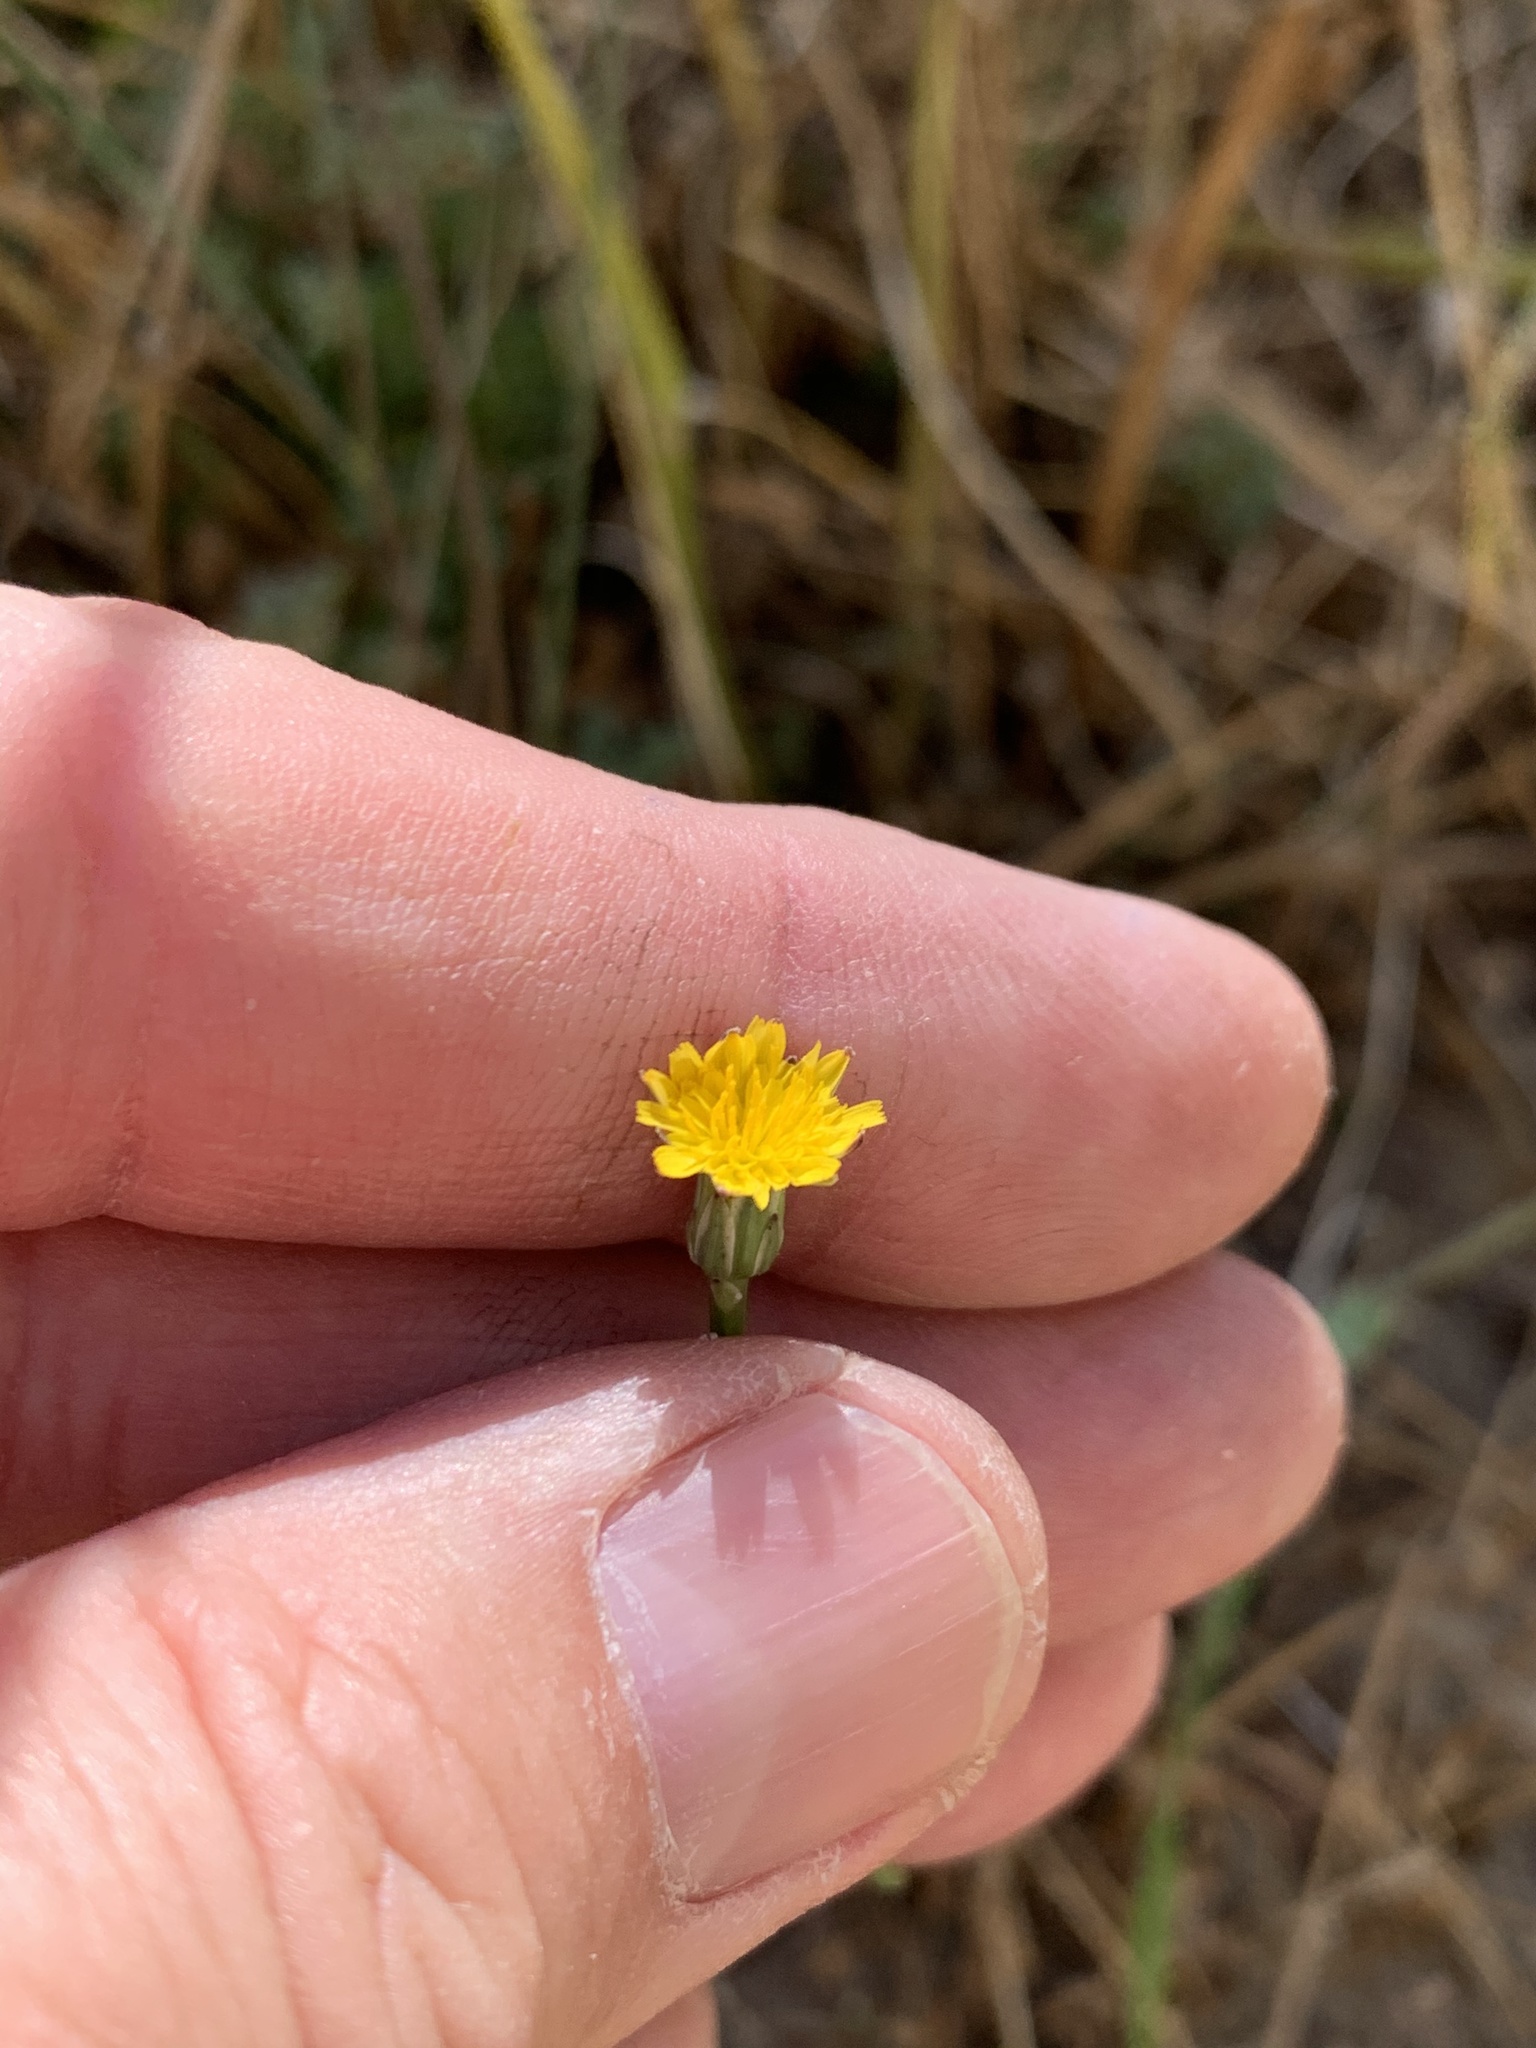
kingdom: Plantae
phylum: Tracheophyta
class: Magnoliopsida
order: Asterales
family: Asteraceae
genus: Hypochaeris
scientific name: Hypochaeris glabra
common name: Smooth catsear
